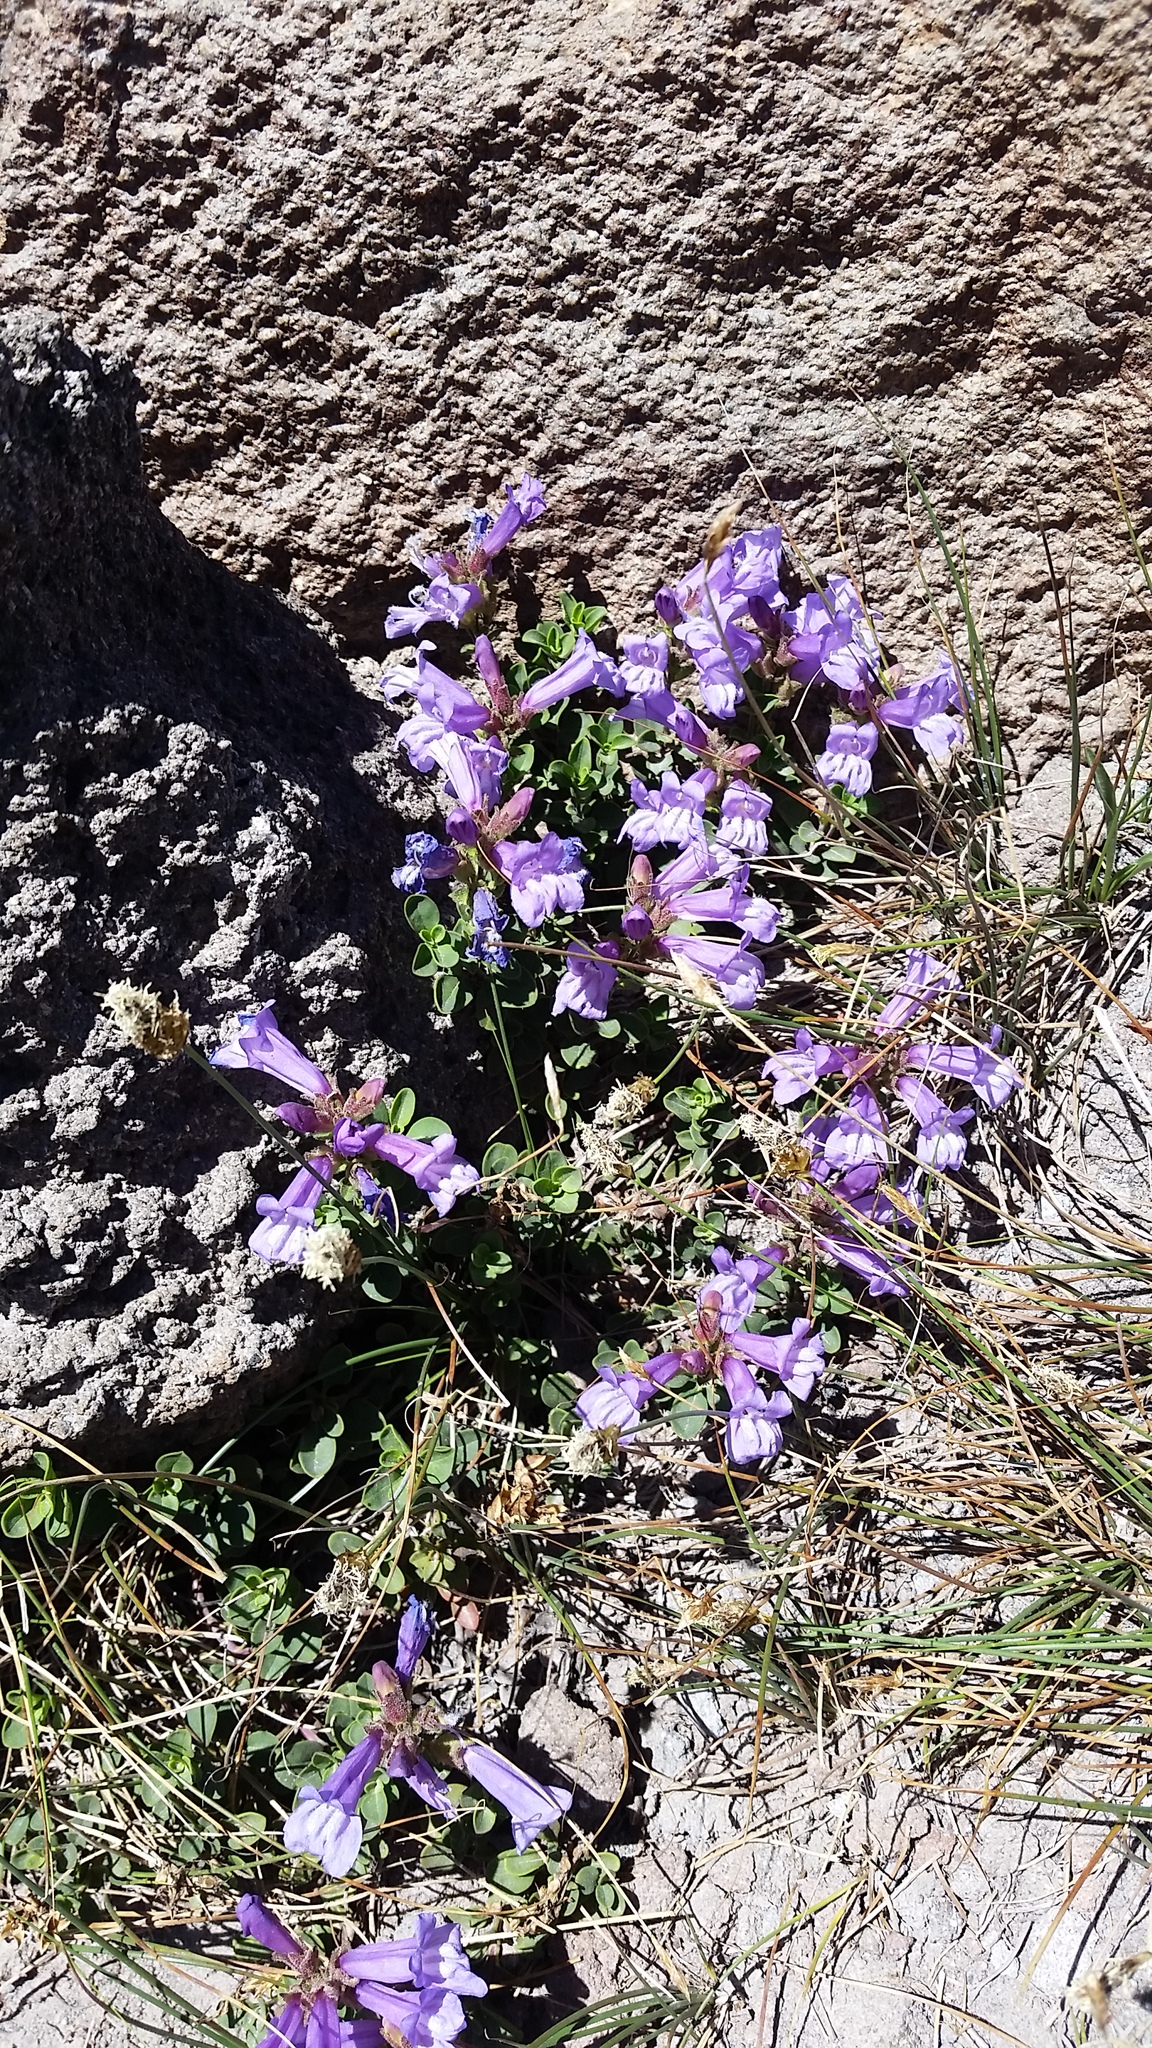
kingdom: Plantae
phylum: Tracheophyta
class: Magnoliopsida
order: Lamiales
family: Plantaginaceae
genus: Penstemon
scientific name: Penstemon davidsonii
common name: Davidson's penstemon
